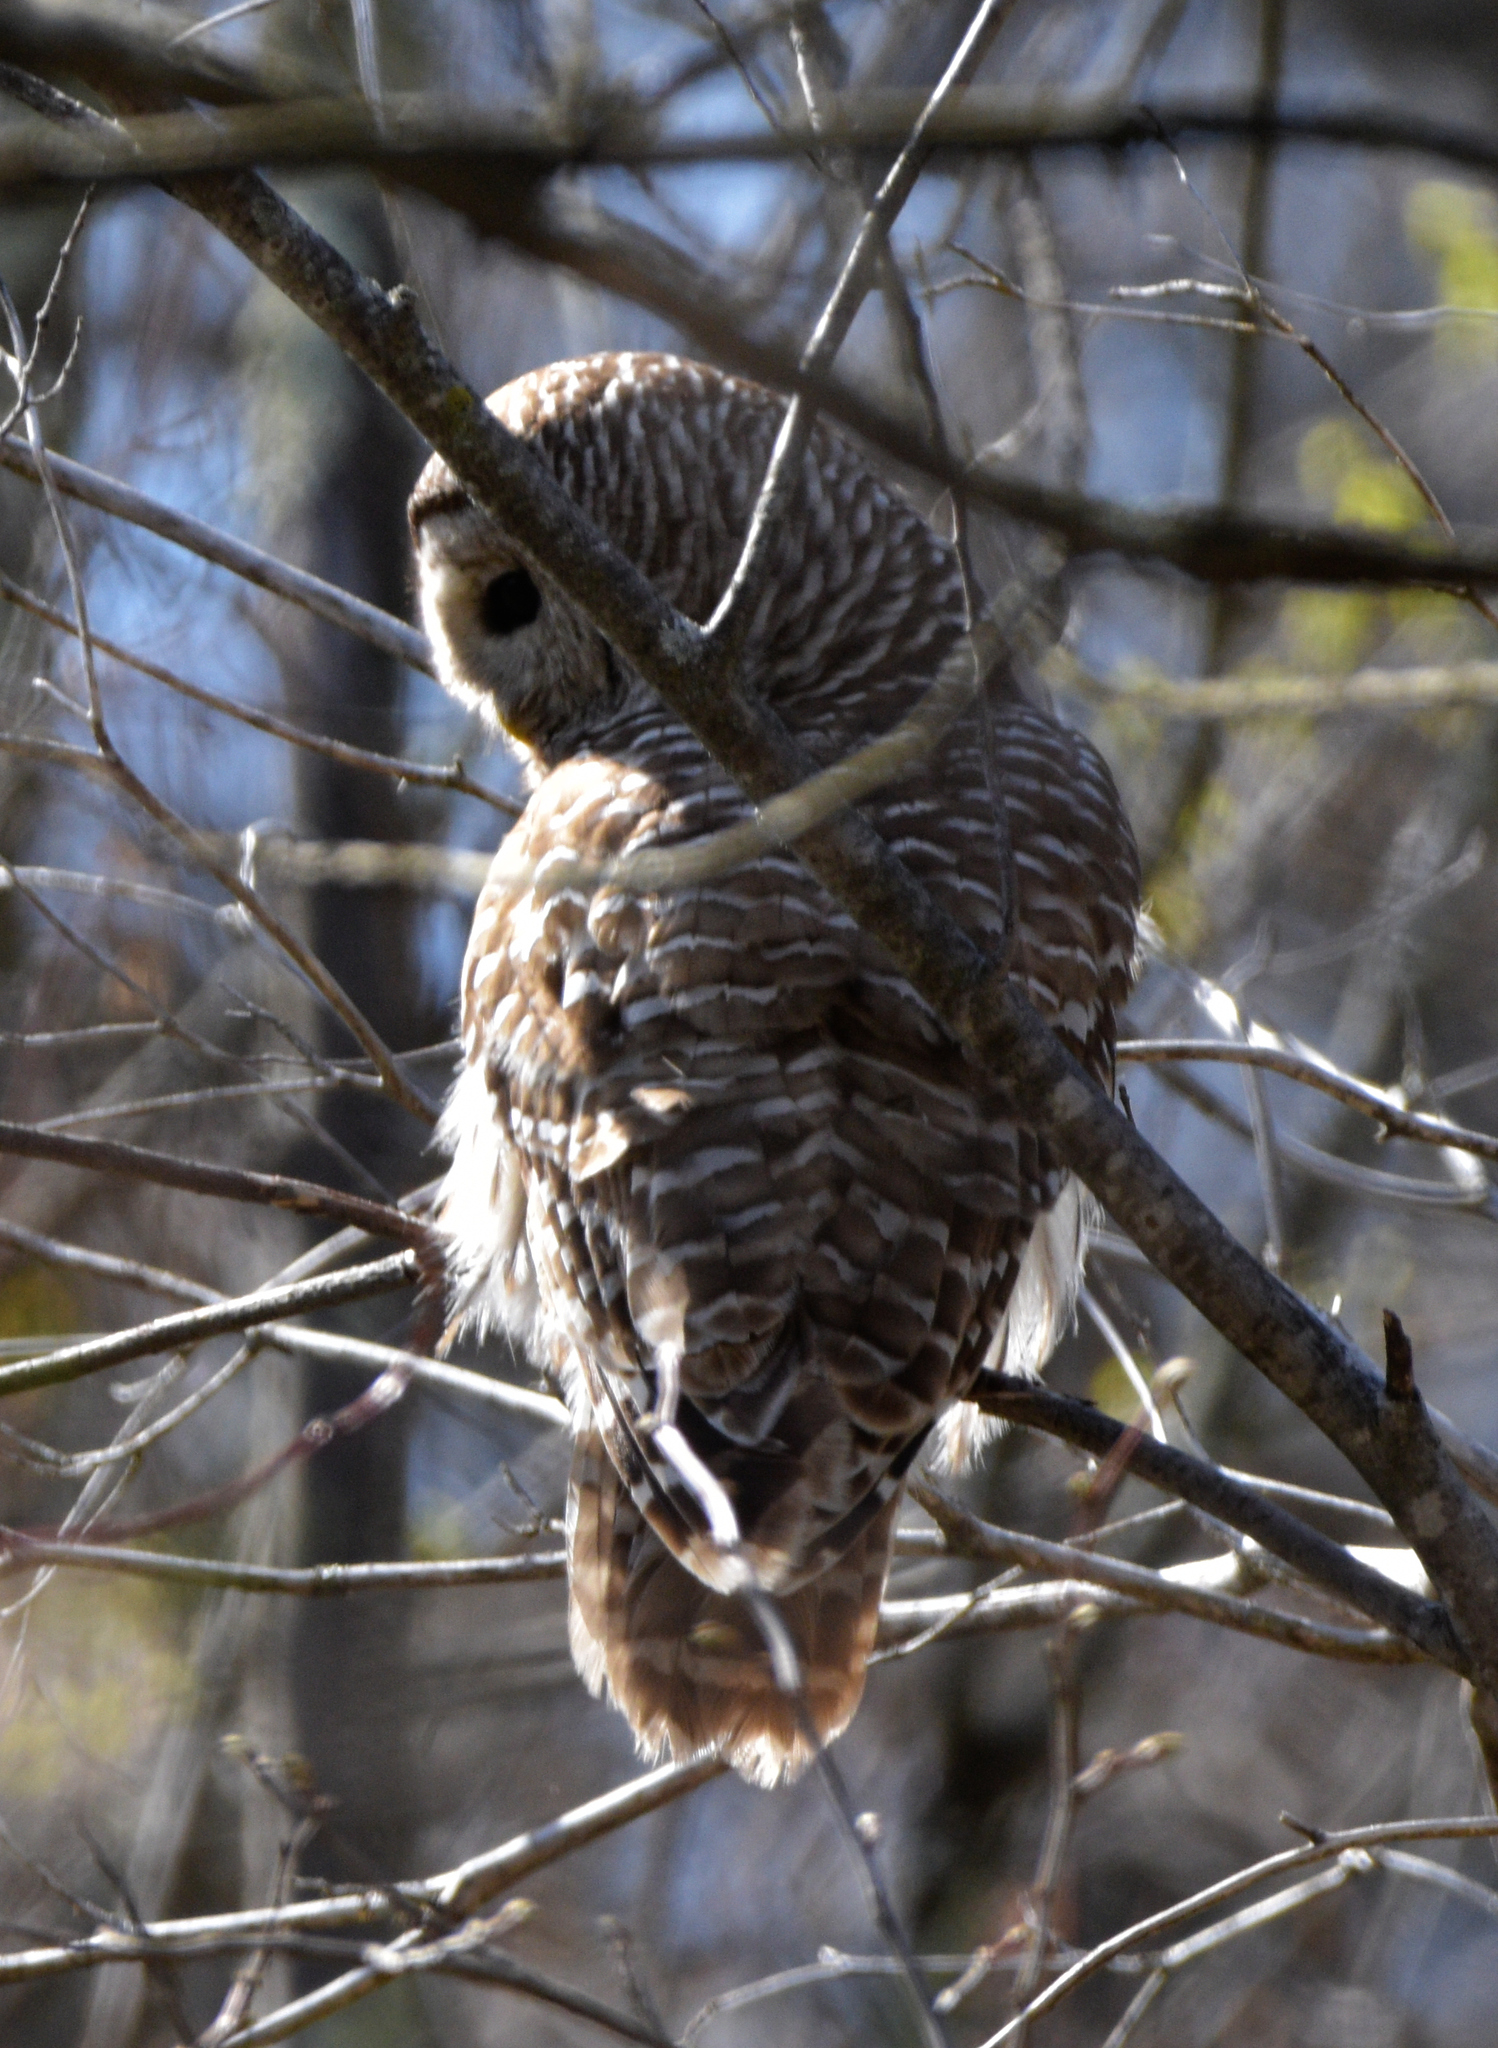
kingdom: Animalia
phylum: Chordata
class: Aves
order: Strigiformes
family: Strigidae
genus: Strix
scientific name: Strix varia
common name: Barred owl
